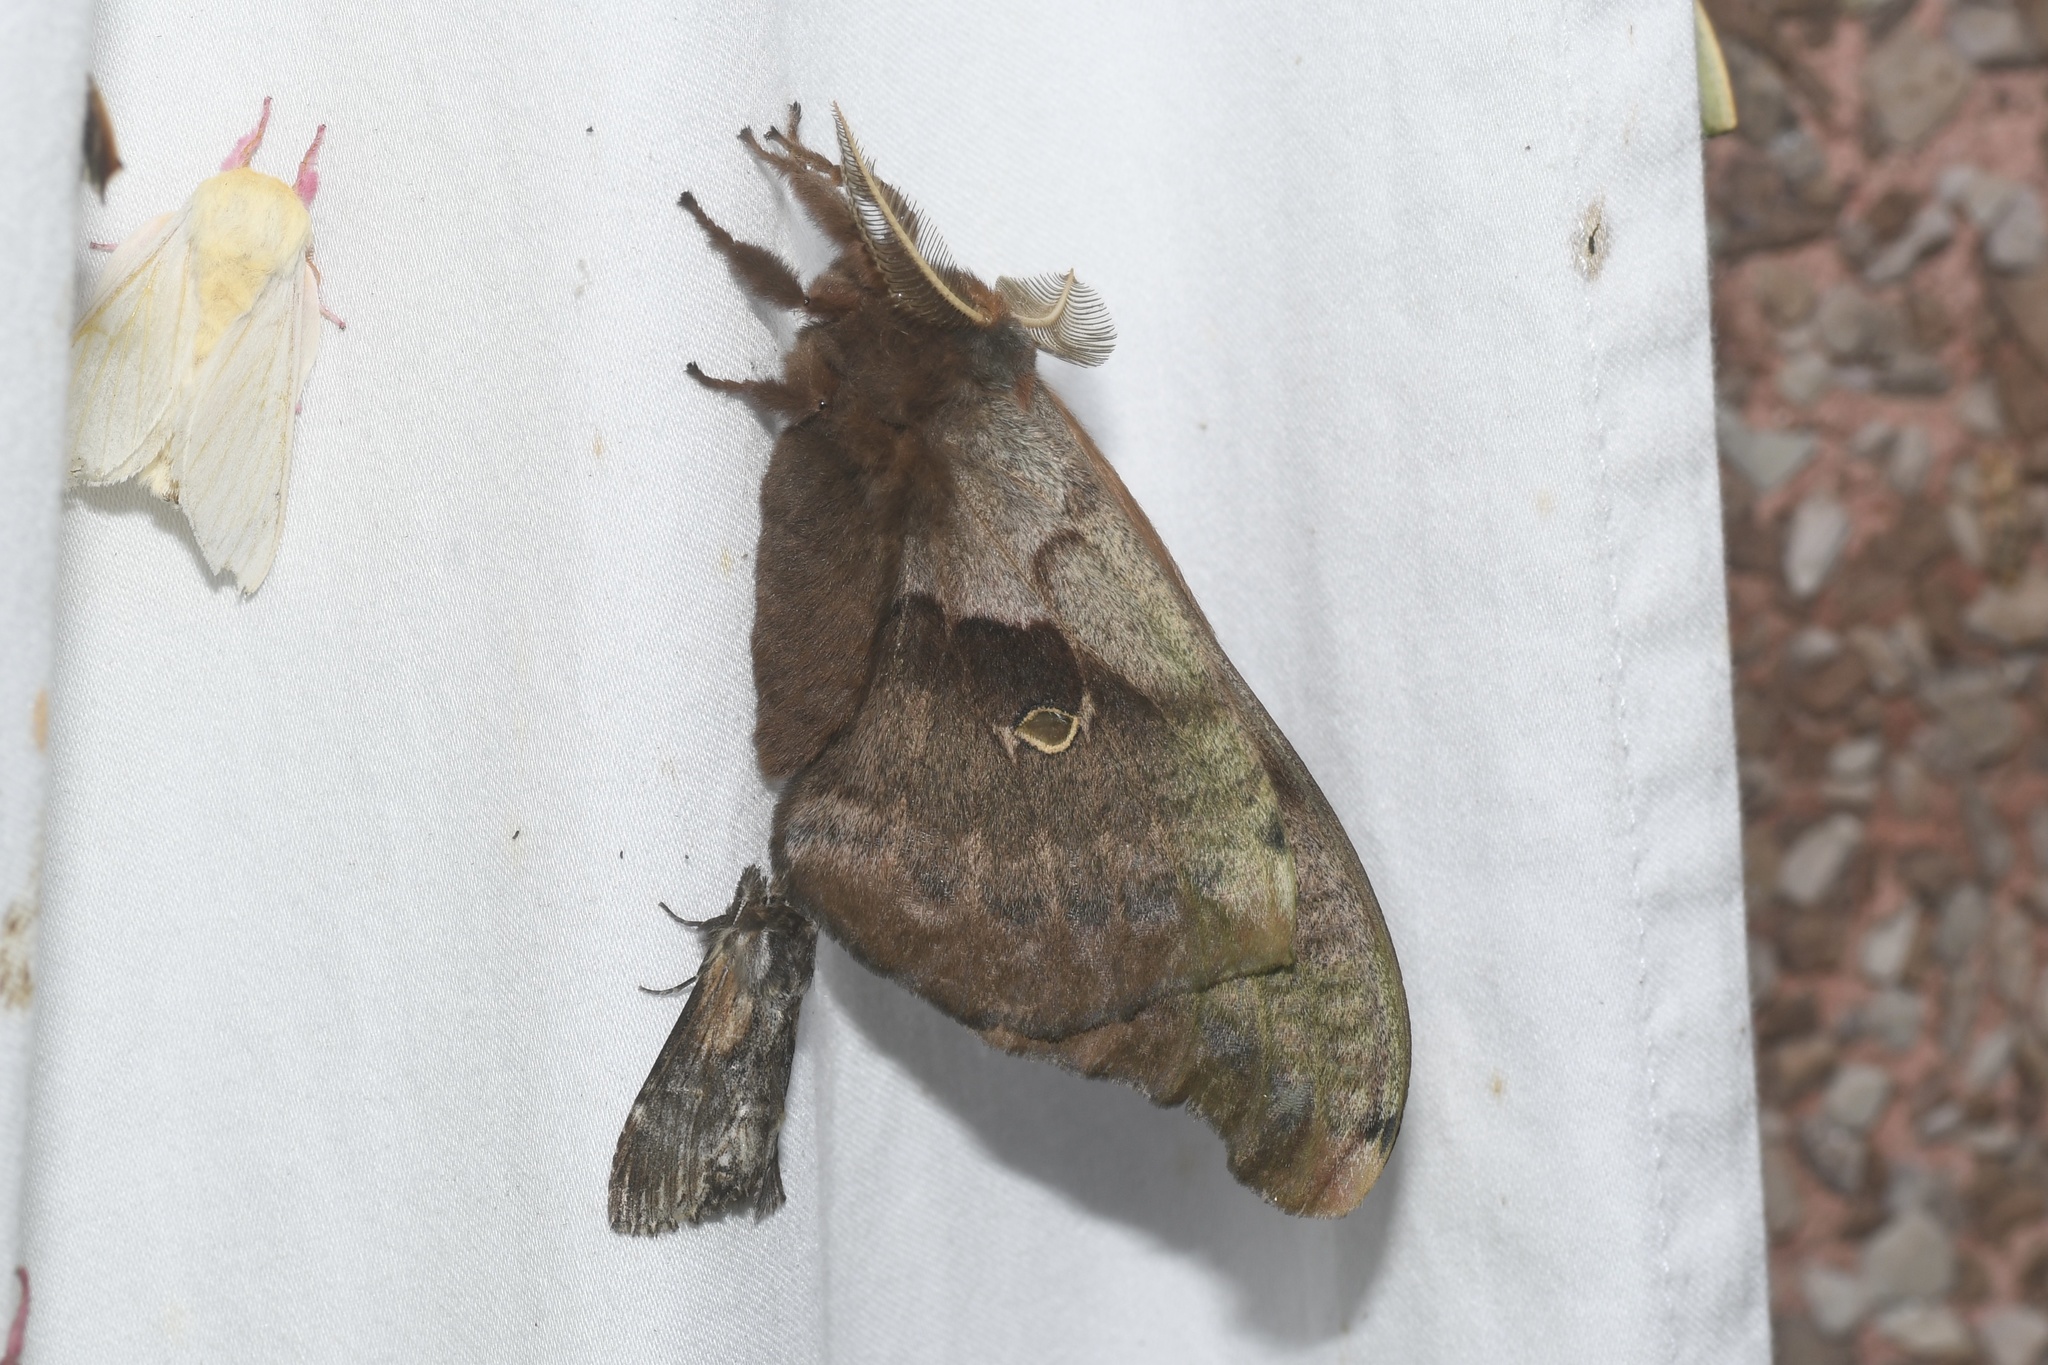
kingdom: Animalia
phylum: Arthropoda
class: Insecta
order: Lepidoptera
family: Saturniidae
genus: Antheraea
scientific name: Antheraea polyphemus
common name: Polyphemus moth
